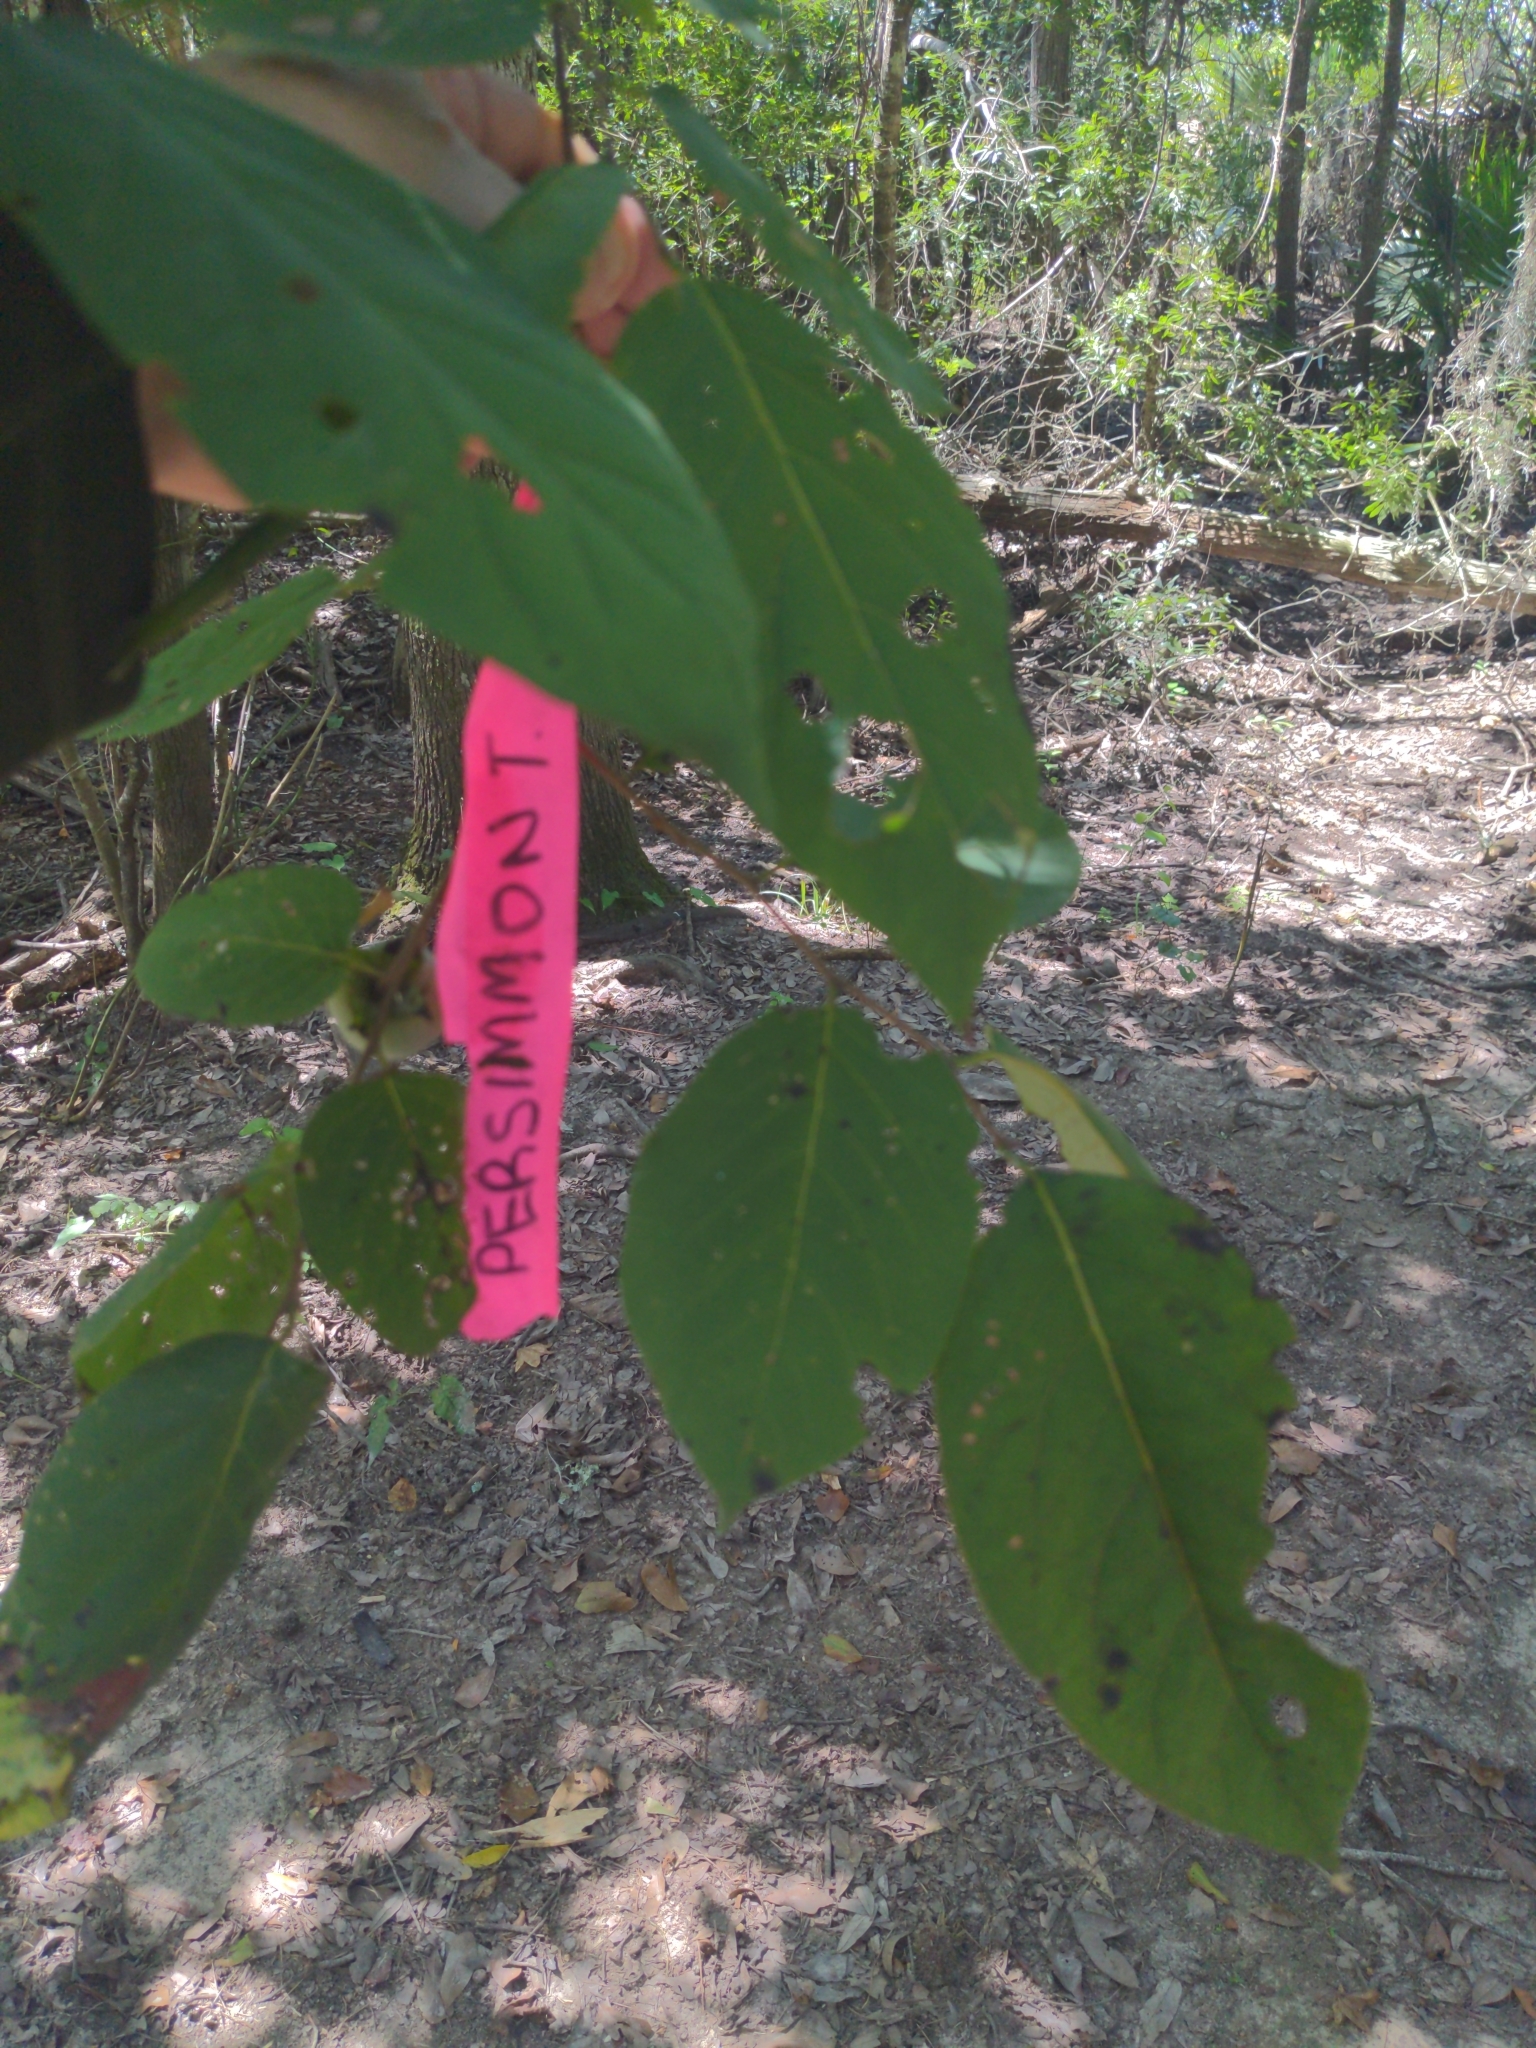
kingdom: Plantae
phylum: Tracheophyta
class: Magnoliopsida
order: Ericales
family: Ebenaceae
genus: Diospyros
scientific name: Diospyros virginiana
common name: Persimmon
